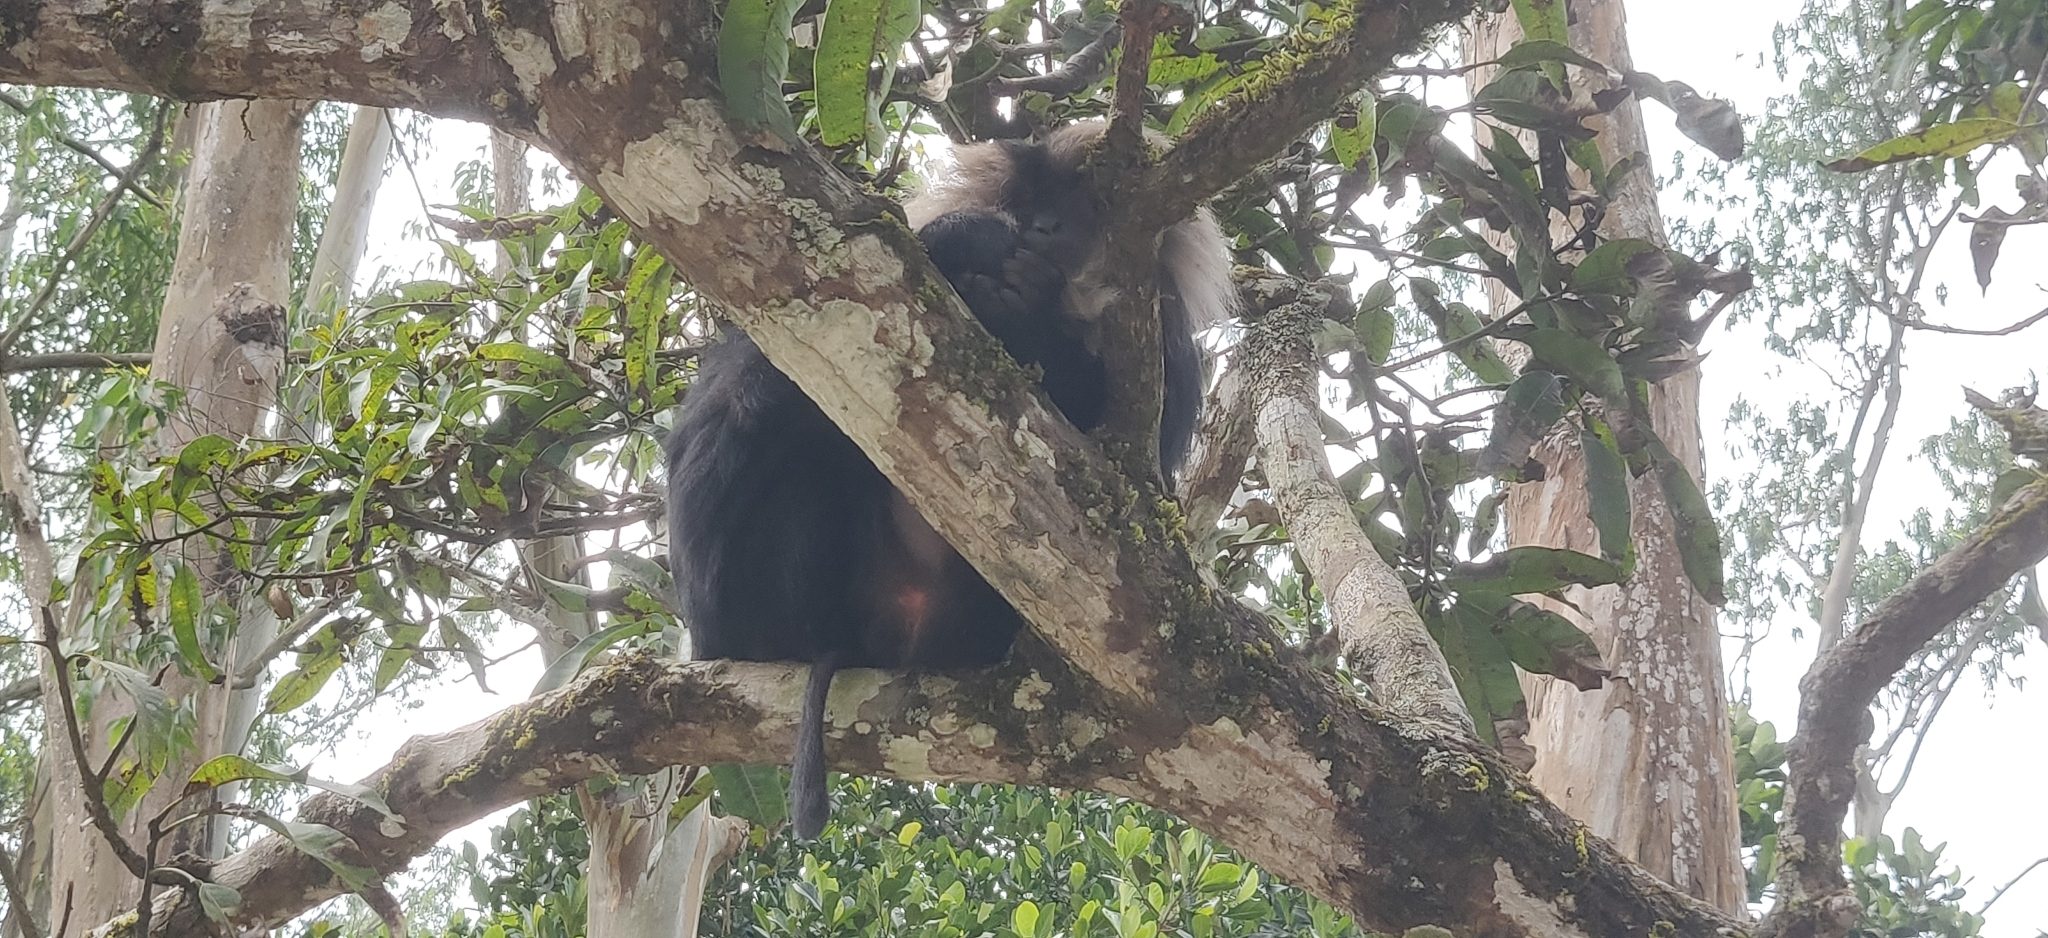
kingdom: Animalia
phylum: Chordata
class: Mammalia
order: Primates
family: Cercopithecidae
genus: Macaca
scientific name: Macaca silenus
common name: Lion-tailed macaque
